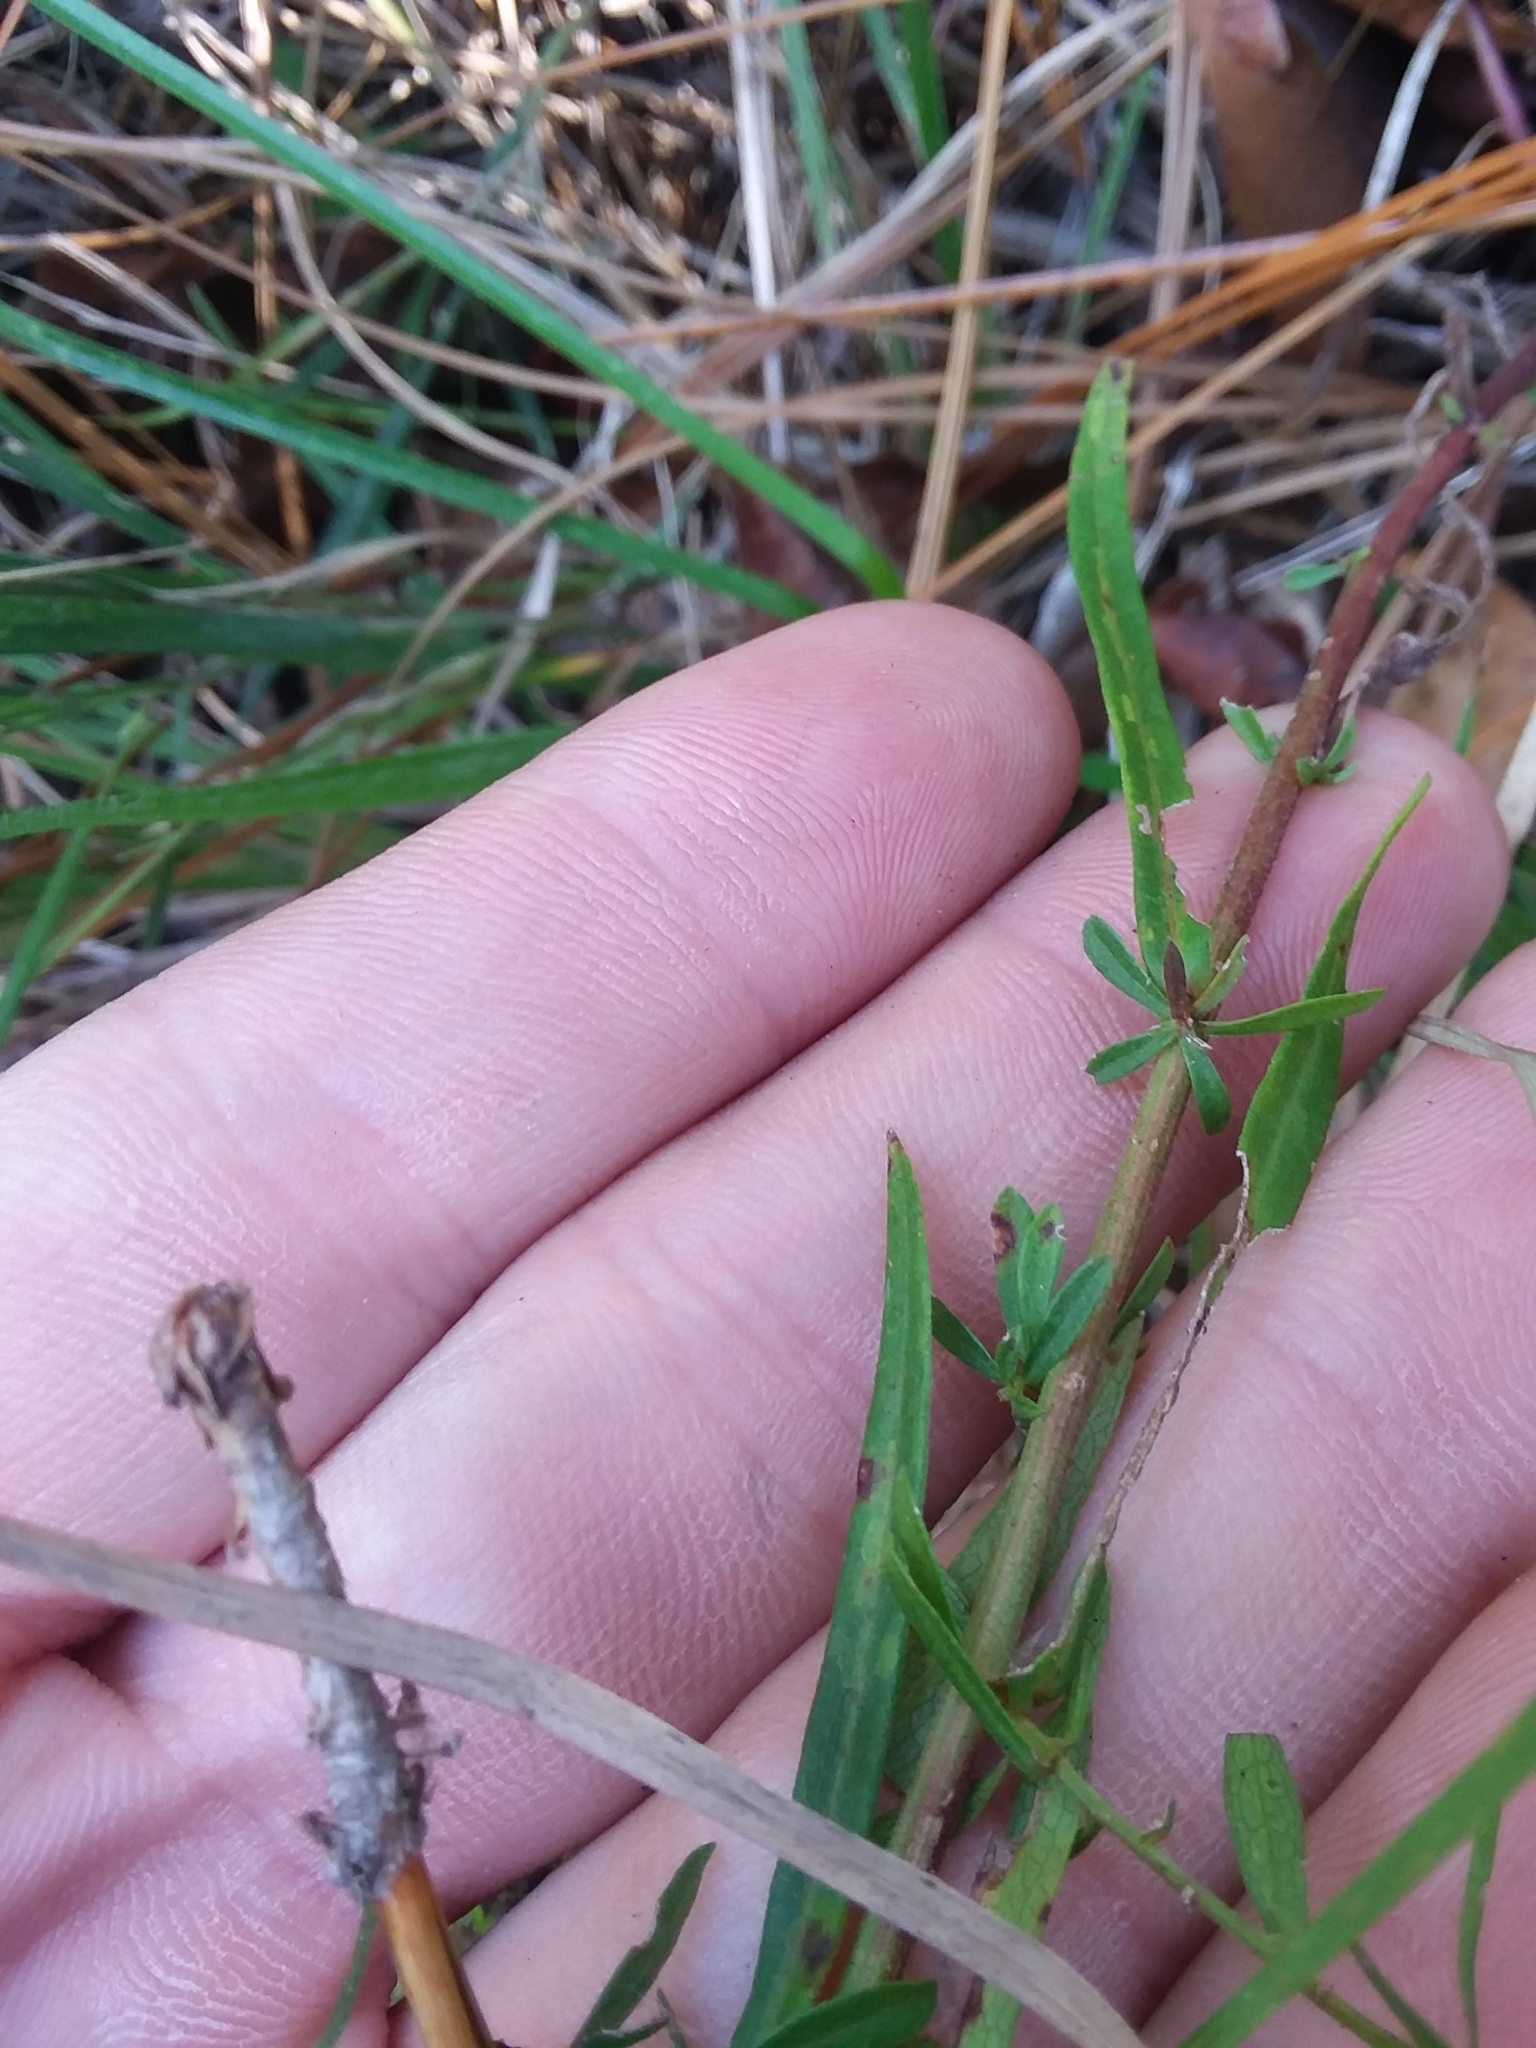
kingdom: Plantae
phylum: Tracheophyta
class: Magnoliopsida
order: Asterales
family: Asteraceae
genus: Symphyotrichum
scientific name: Symphyotrichum dumosum
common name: Bushy aster
